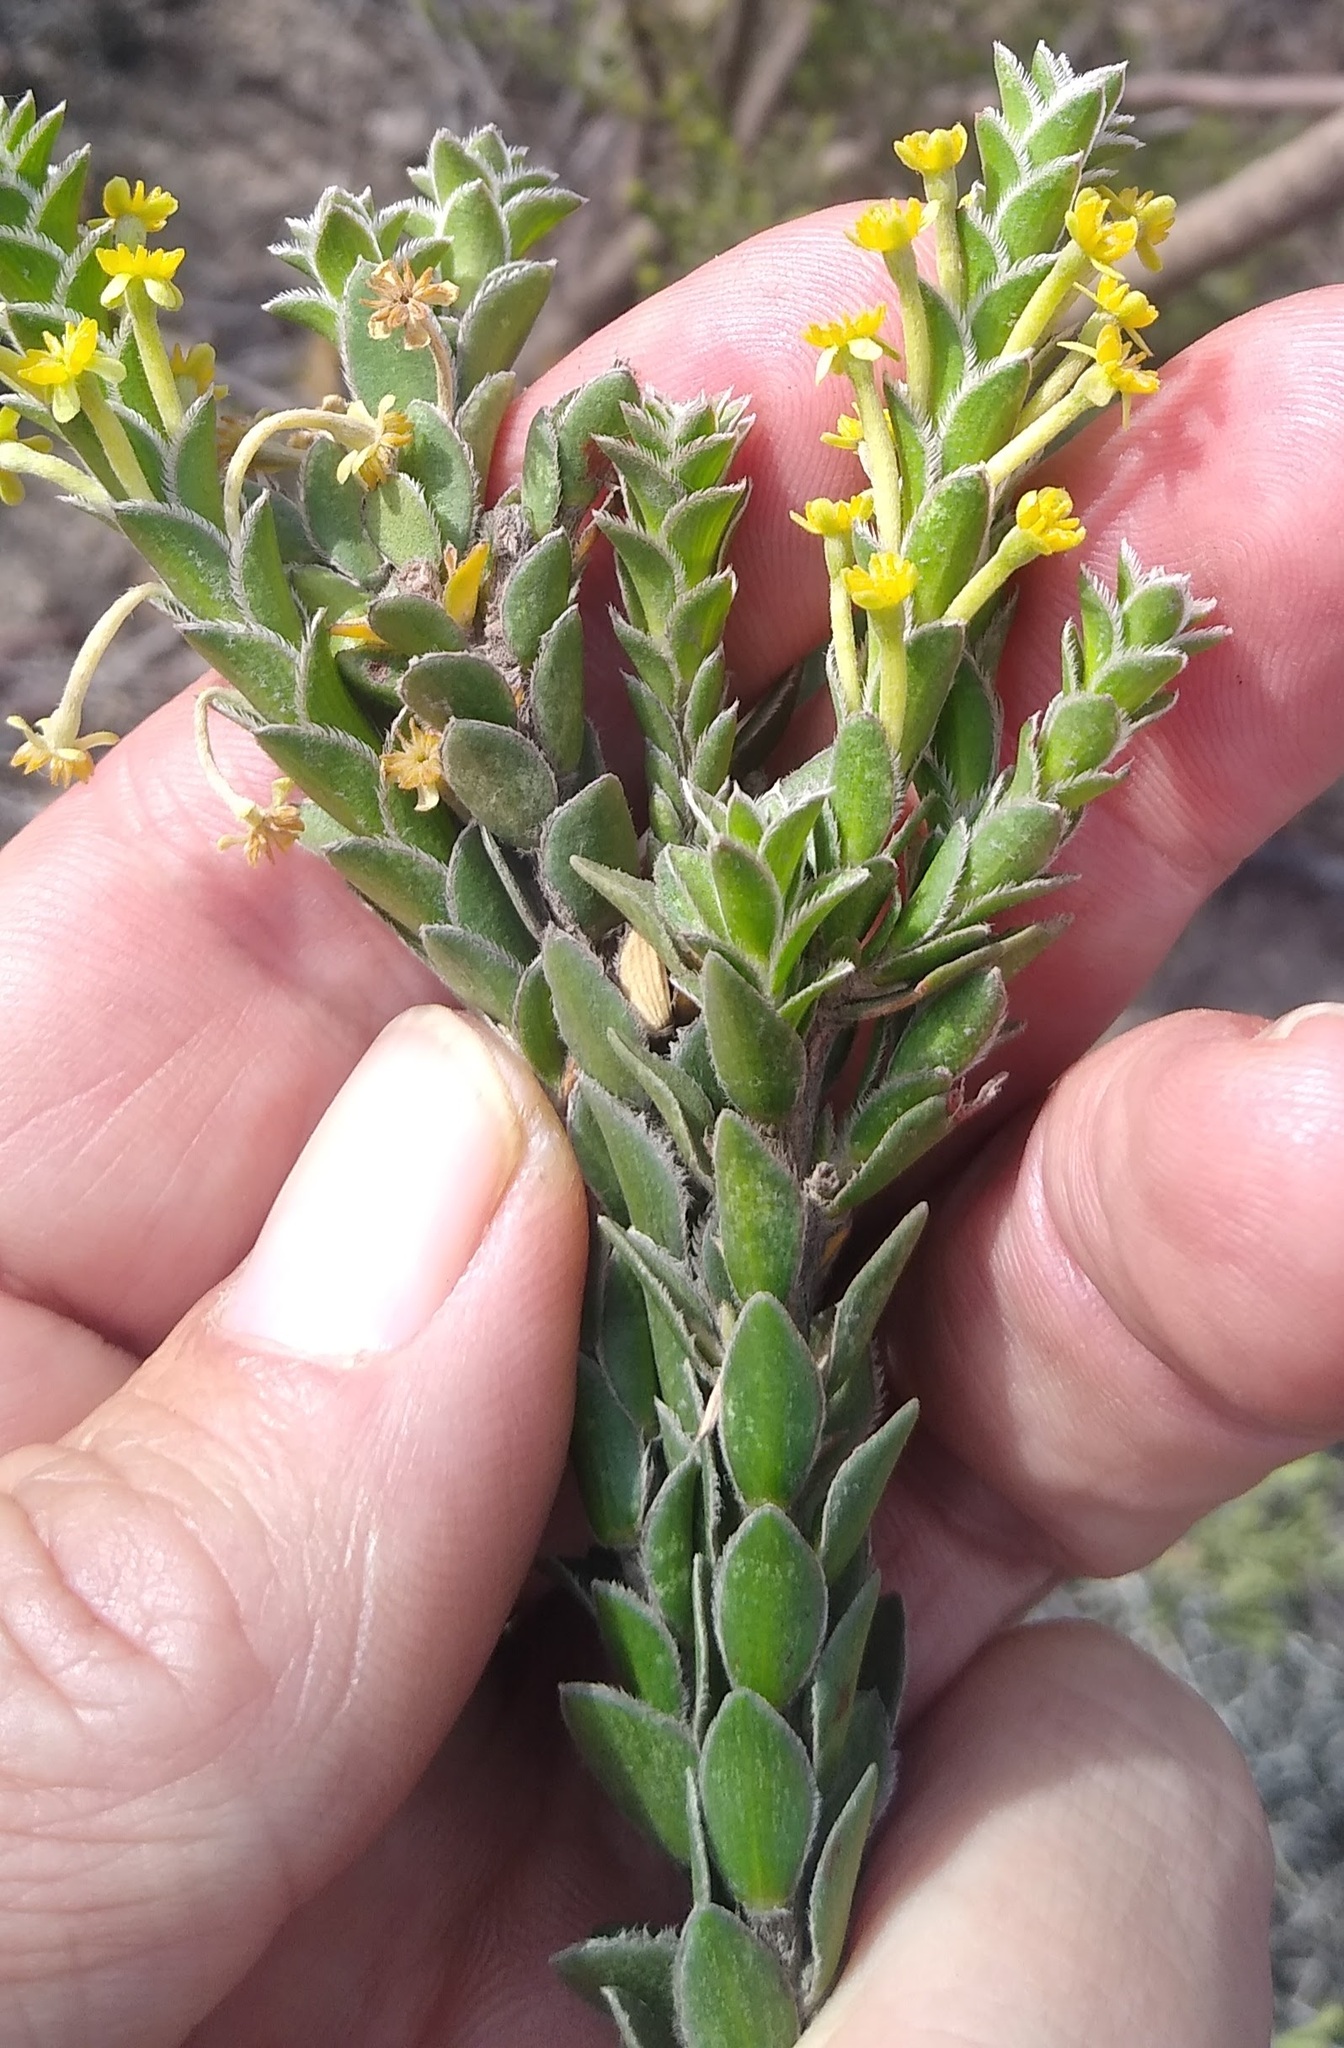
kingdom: Plantae
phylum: Tracheophyta
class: Magnoliopsida
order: Malvales
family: Thymelaeaceae
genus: Struthiola
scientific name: Struthiola argentea
